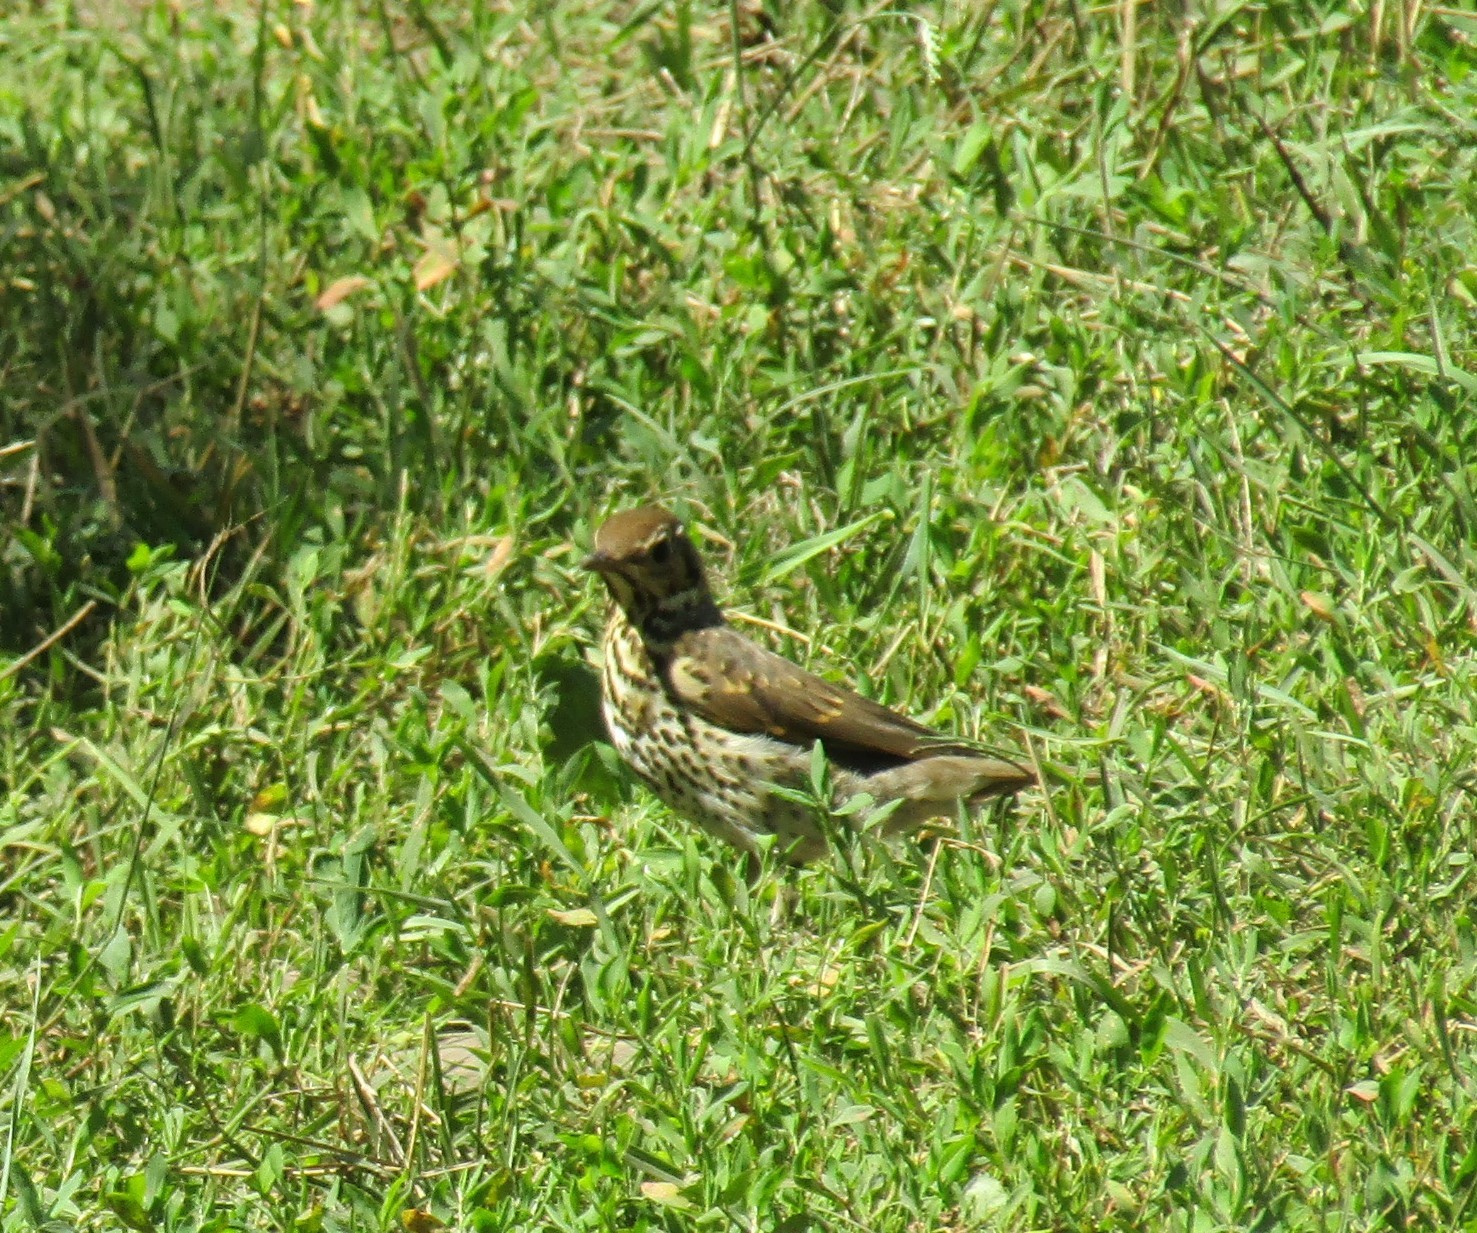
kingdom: Animalia
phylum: Chordata
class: Aves
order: Passeriformes
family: Turdidae
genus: Turdus
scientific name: Turdus philomelos
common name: Song thrush
